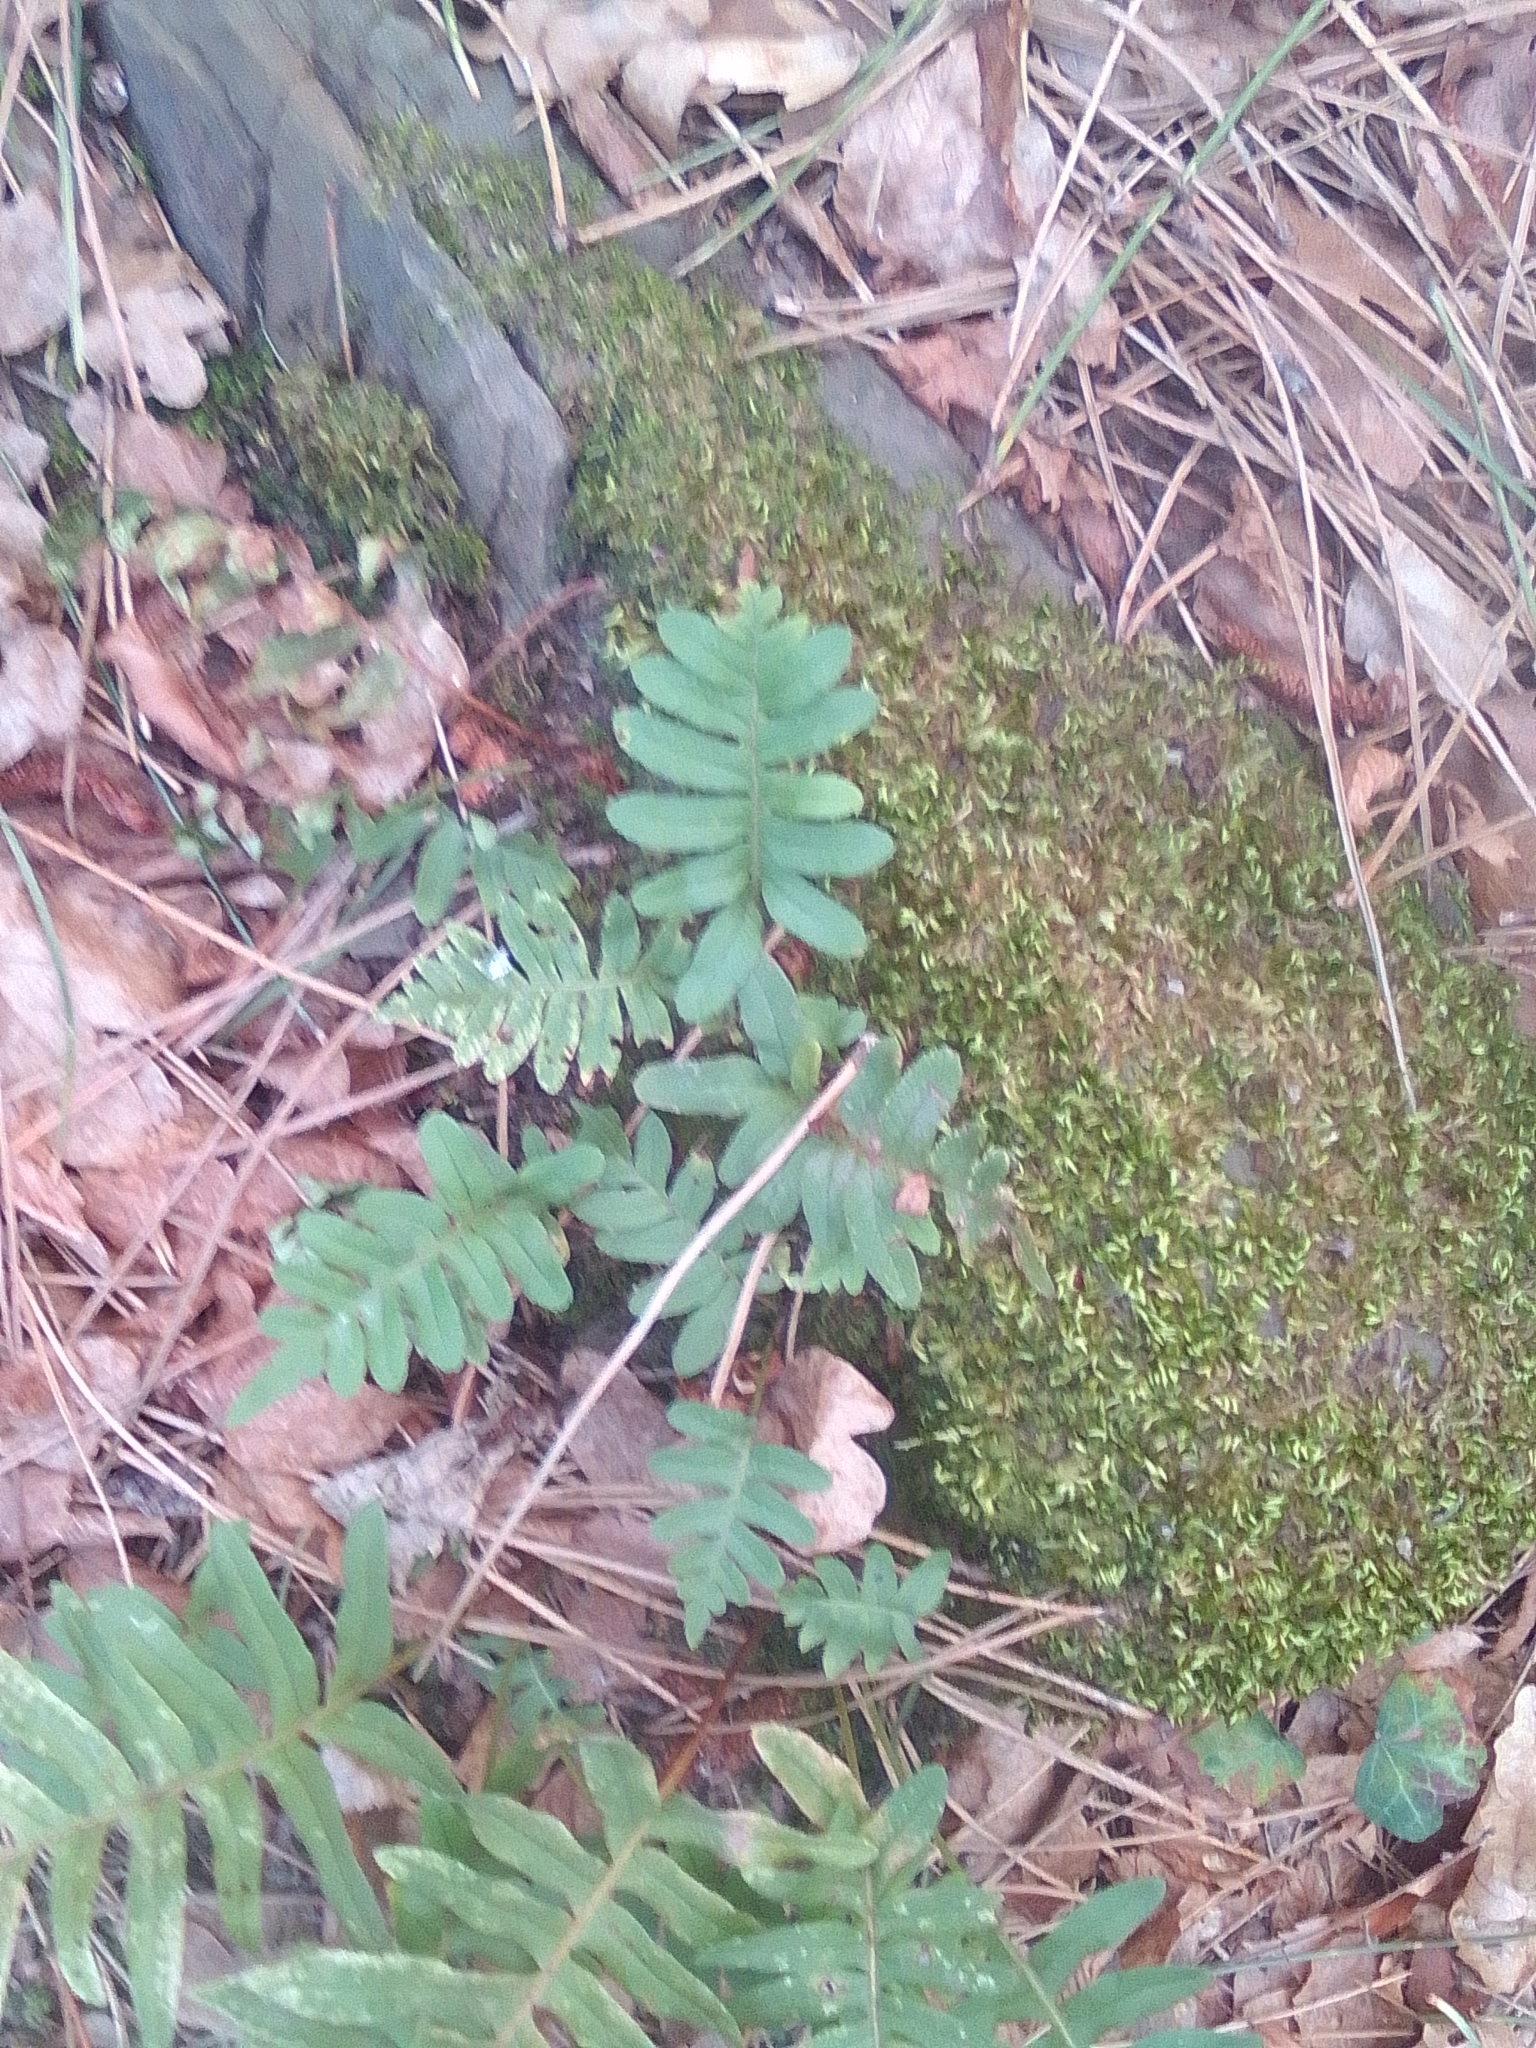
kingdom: Plantae
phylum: Tracheophyta
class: Polypodiopsida
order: Polypodiales
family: Polypodiaceae
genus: Polypodium
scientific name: Polypodium vulgare
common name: Common polypody
